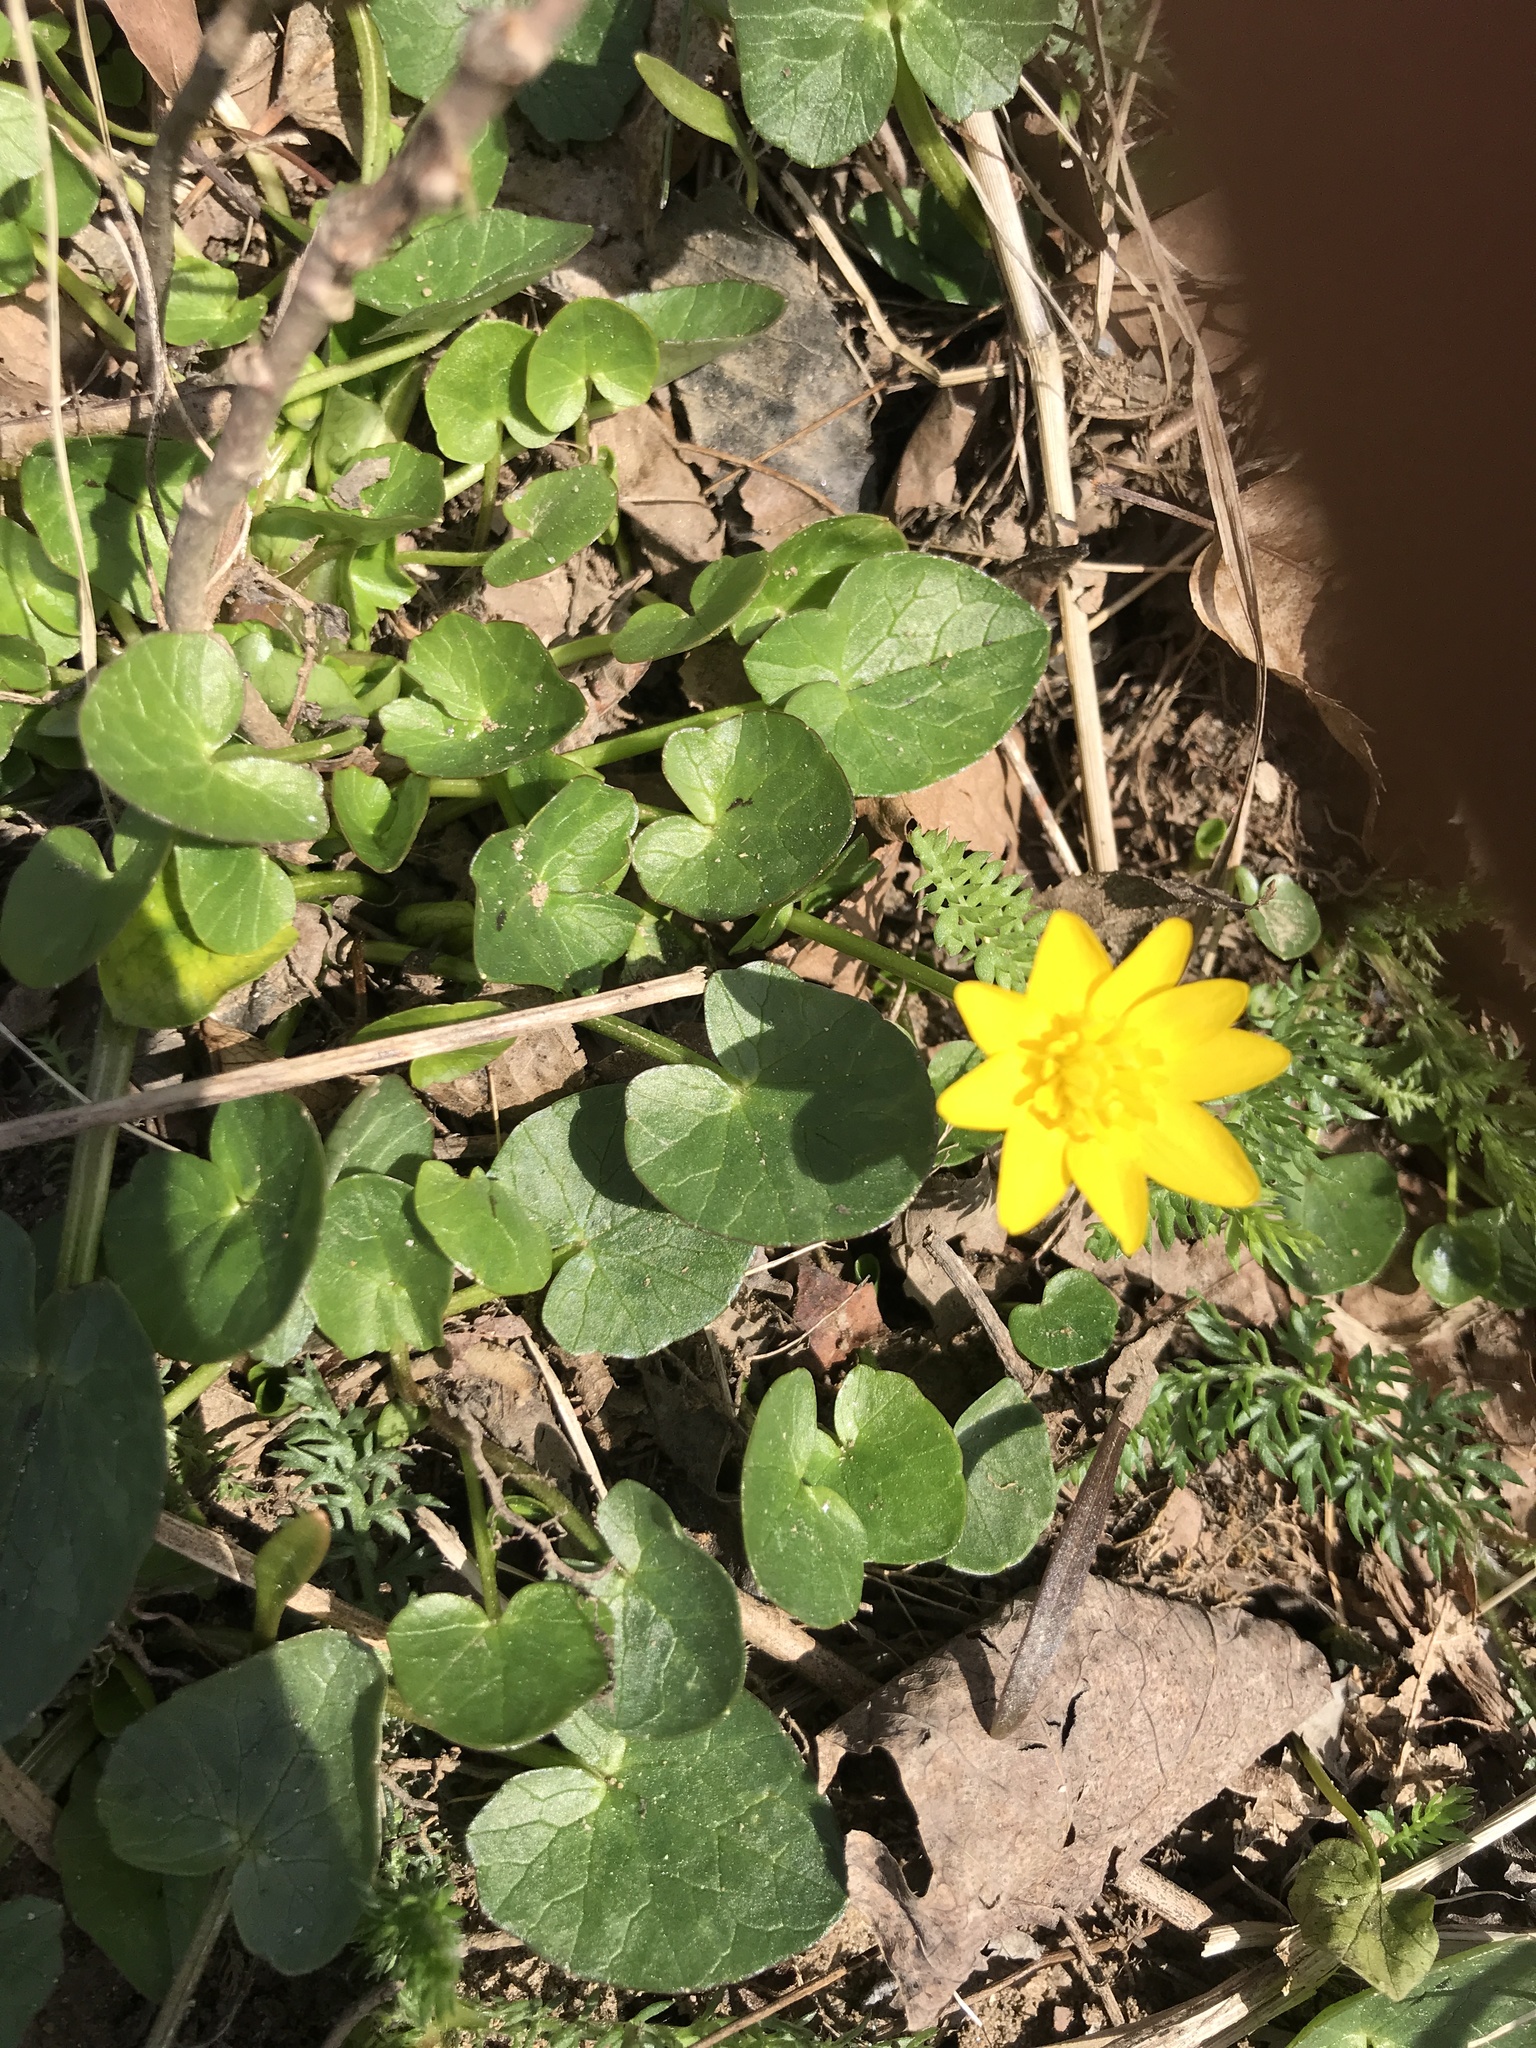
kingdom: Plantae
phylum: Tracheophyta
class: Magnoliopsida
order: Ranunculales
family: Ranunculaceae
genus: Ficaria
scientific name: Ficaria verna
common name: Lesser celandine
